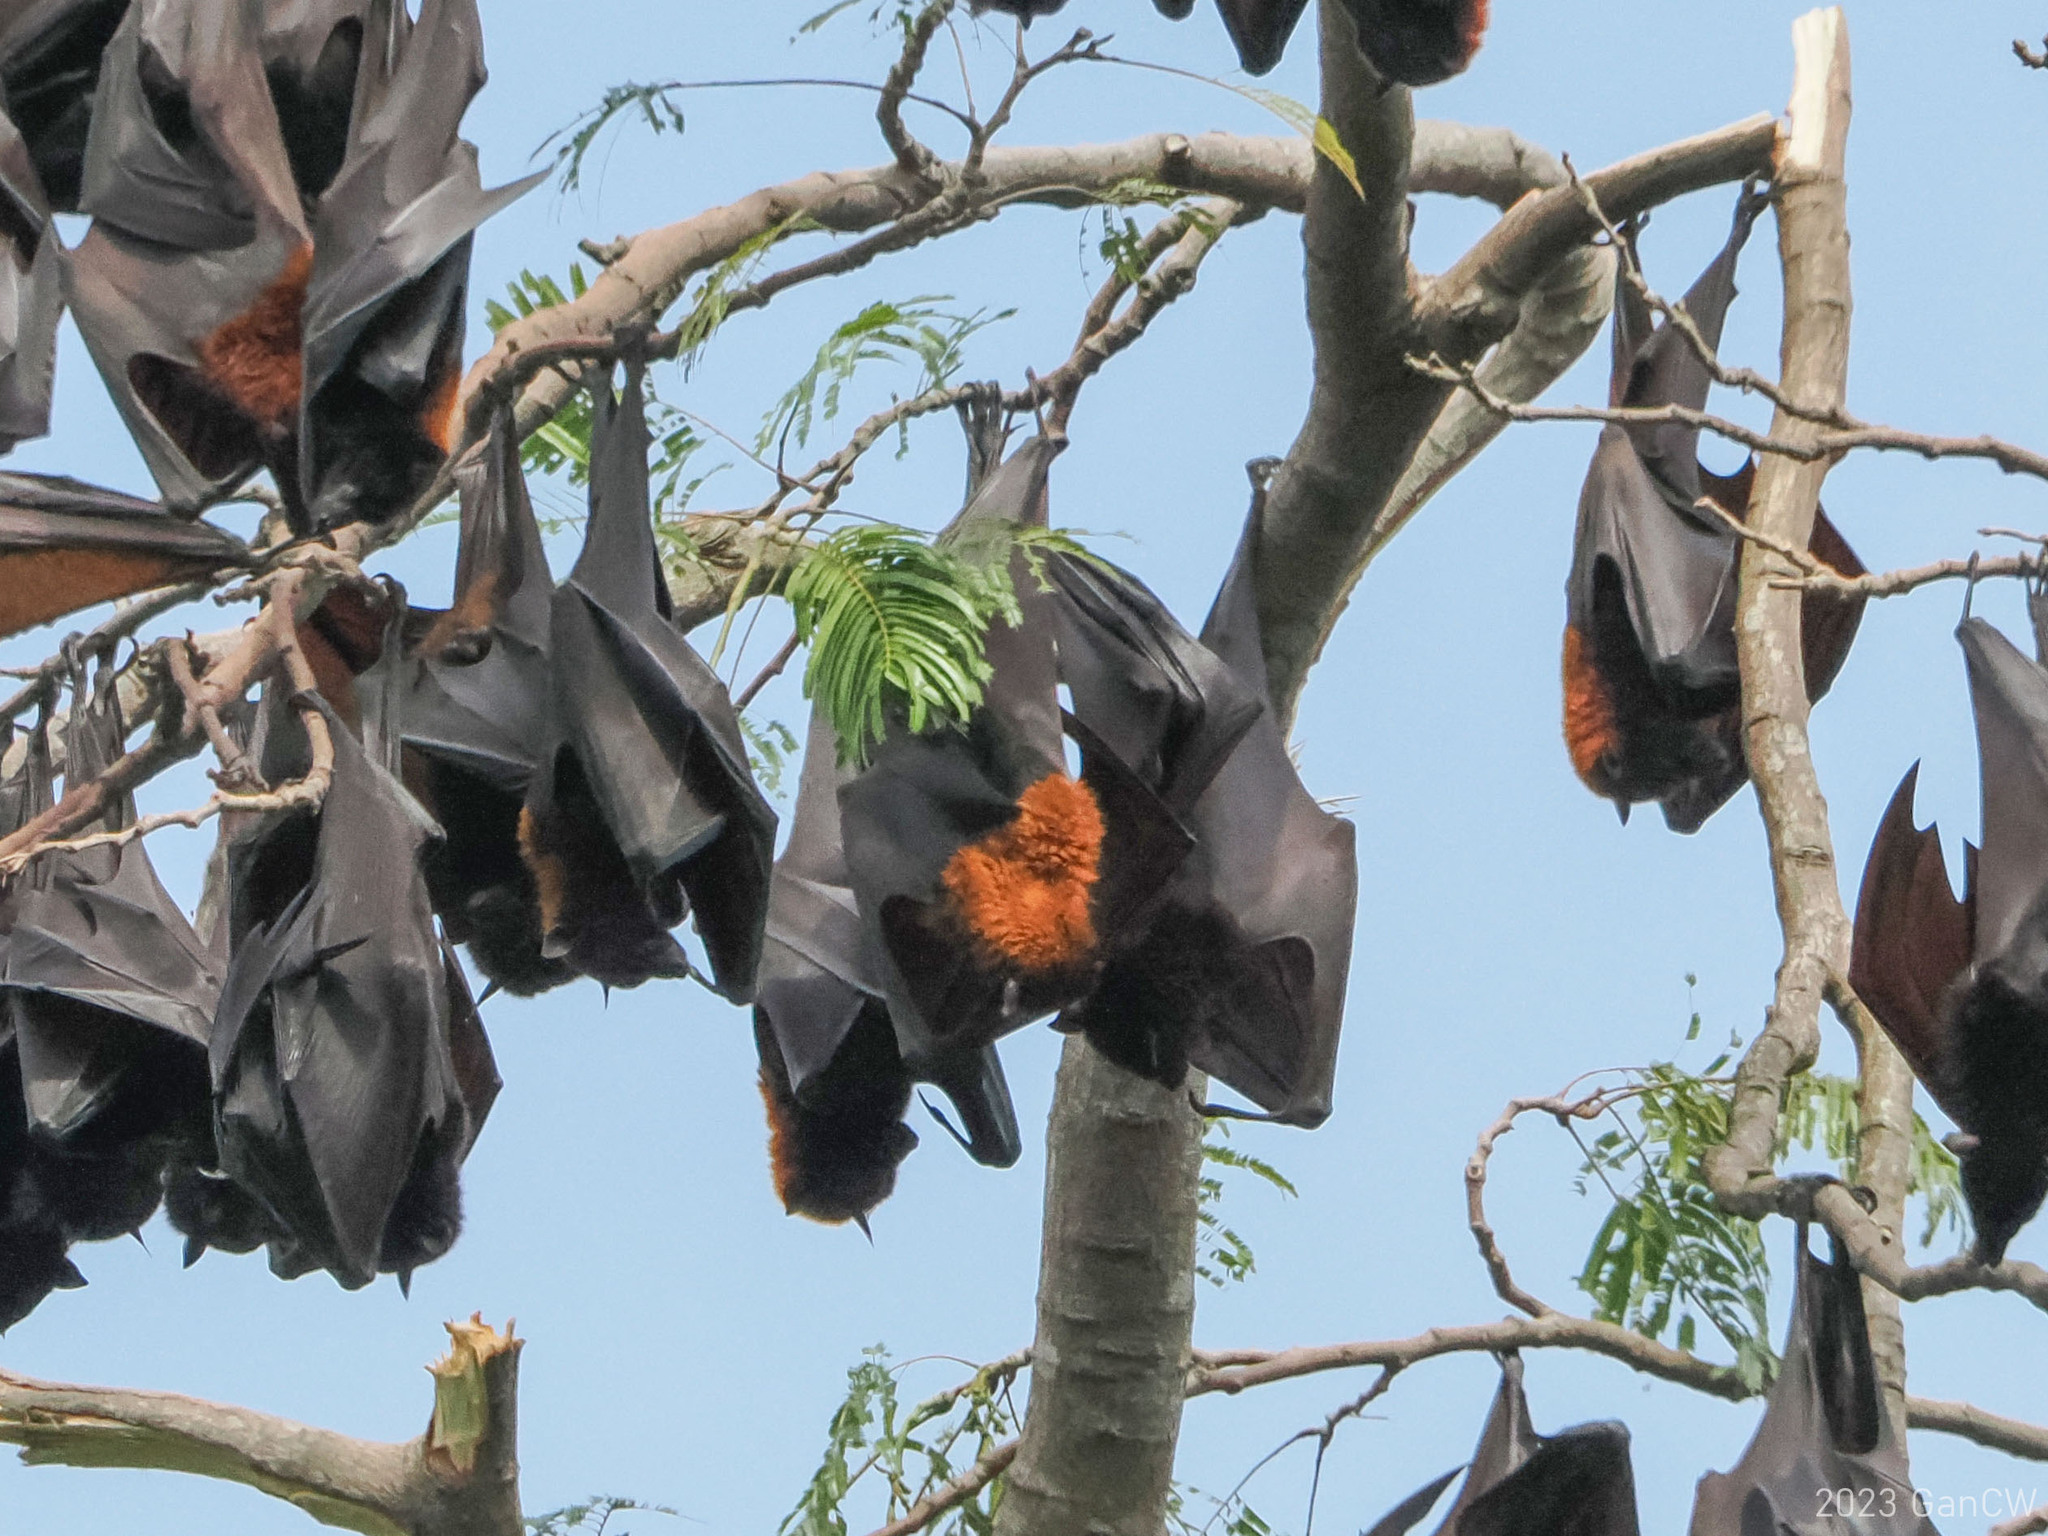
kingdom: Animalia
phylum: Chordata
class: Mammalia
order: Chiroptera
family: Pteropodidae
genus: Pteropus
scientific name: Pteropus vampyrus
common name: Large flying fox
